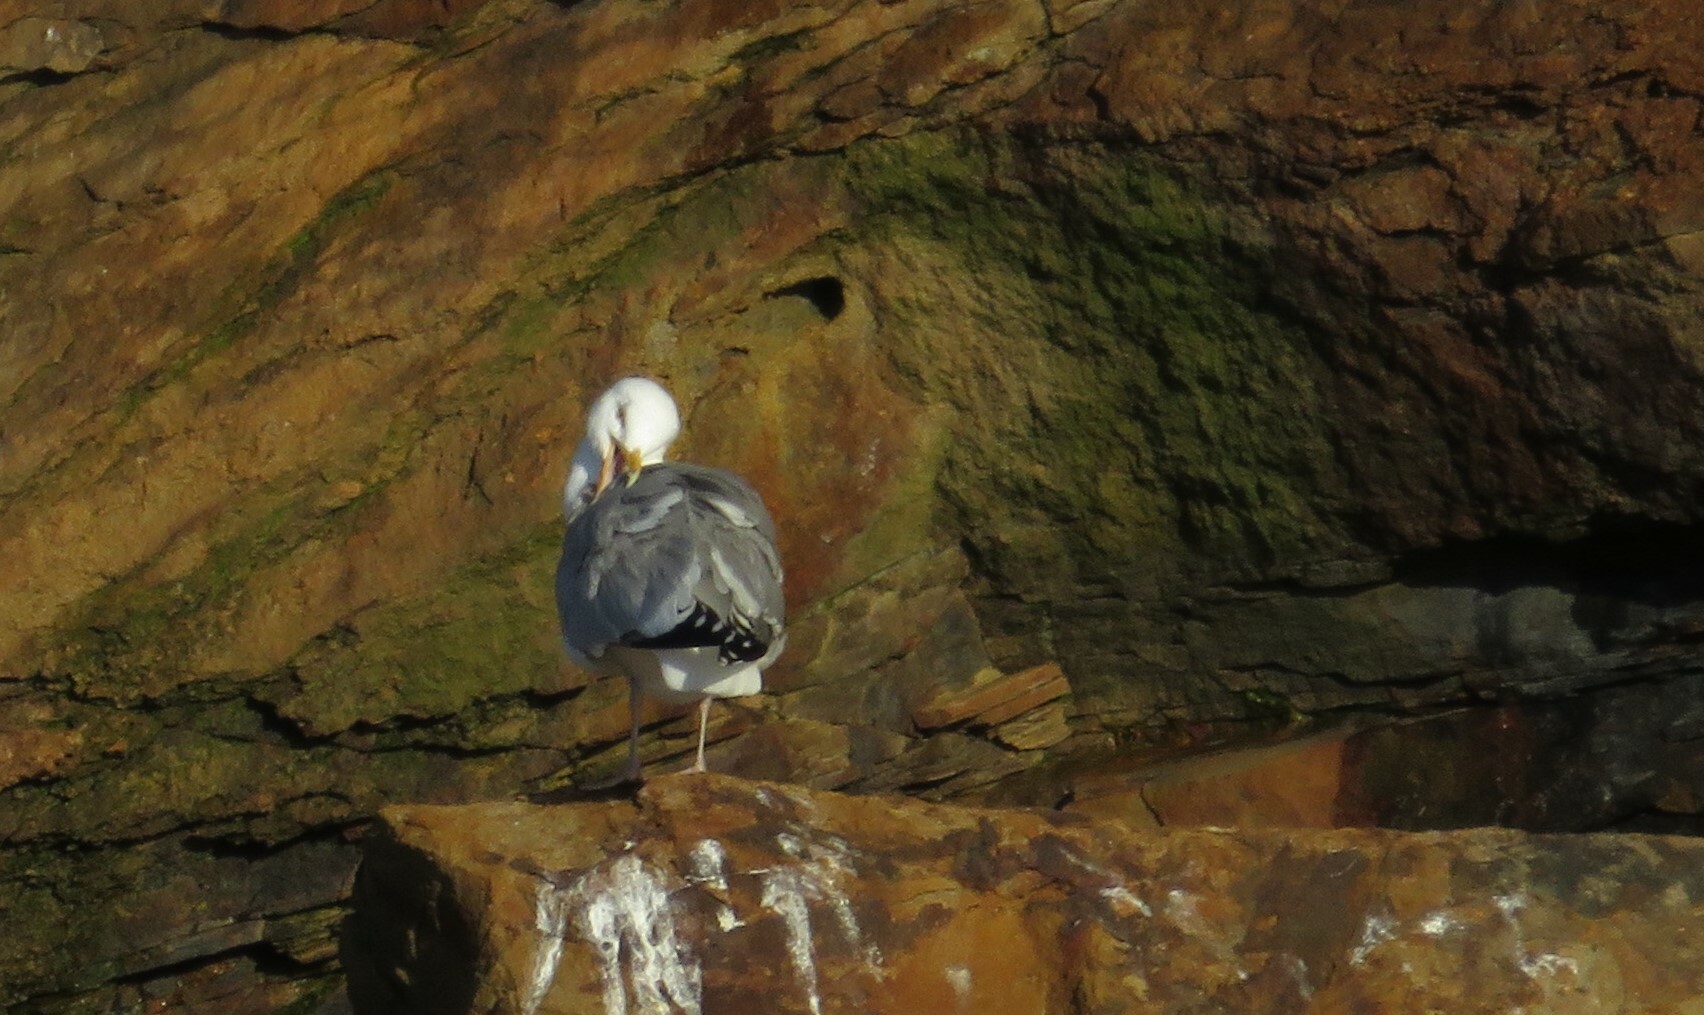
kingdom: Animalia
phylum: Chordata
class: Aves
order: Charadriiformes
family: Laridae
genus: Larus
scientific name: Larus argentatus
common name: Herring gull
